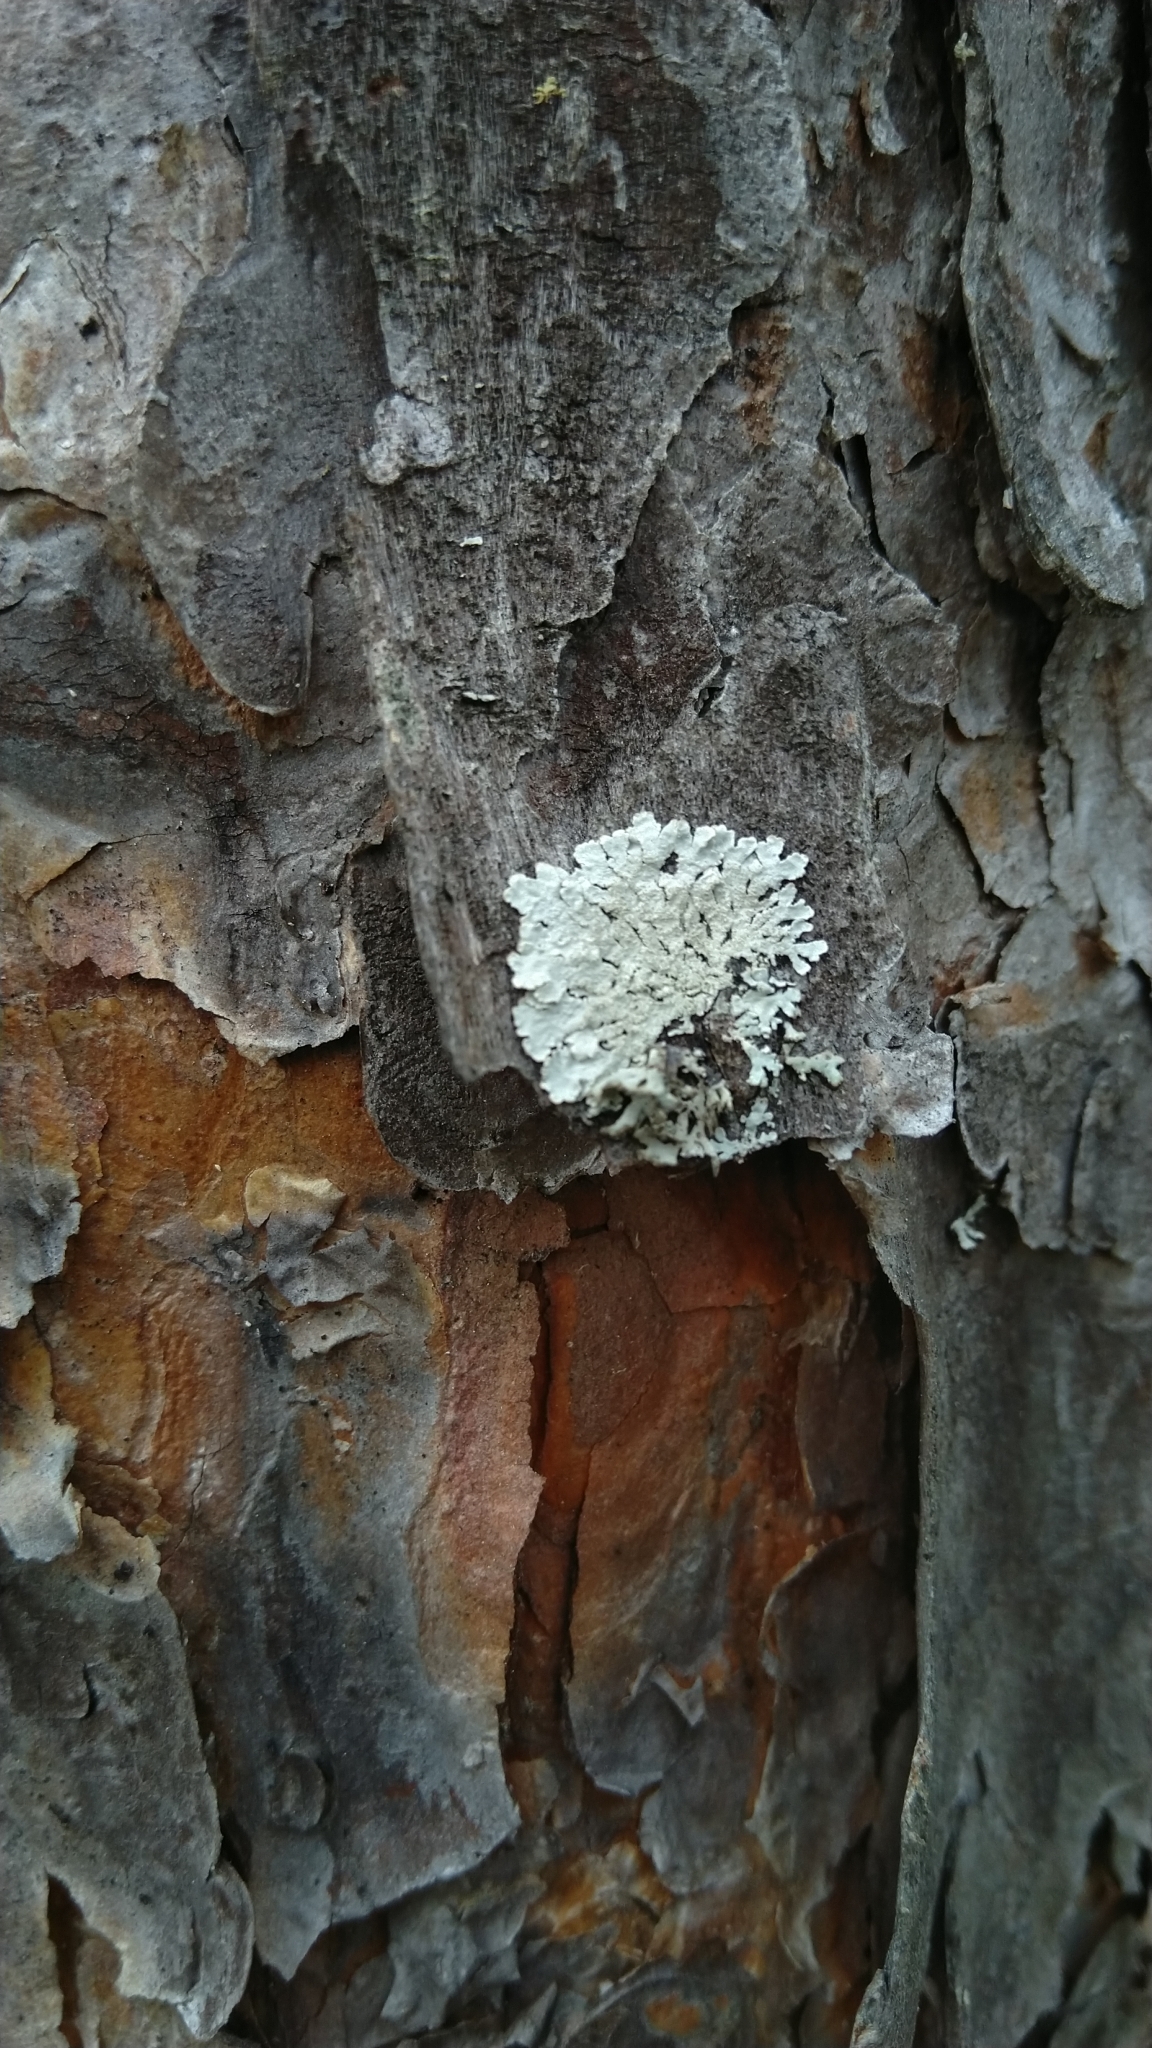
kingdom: Fungi
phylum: Ascomycota
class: Lecanoromycetes
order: Lecanorales
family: Parmeliaceae
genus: Imshaugia
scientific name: Imshaugia aleurites
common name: Salted starburst lichen
